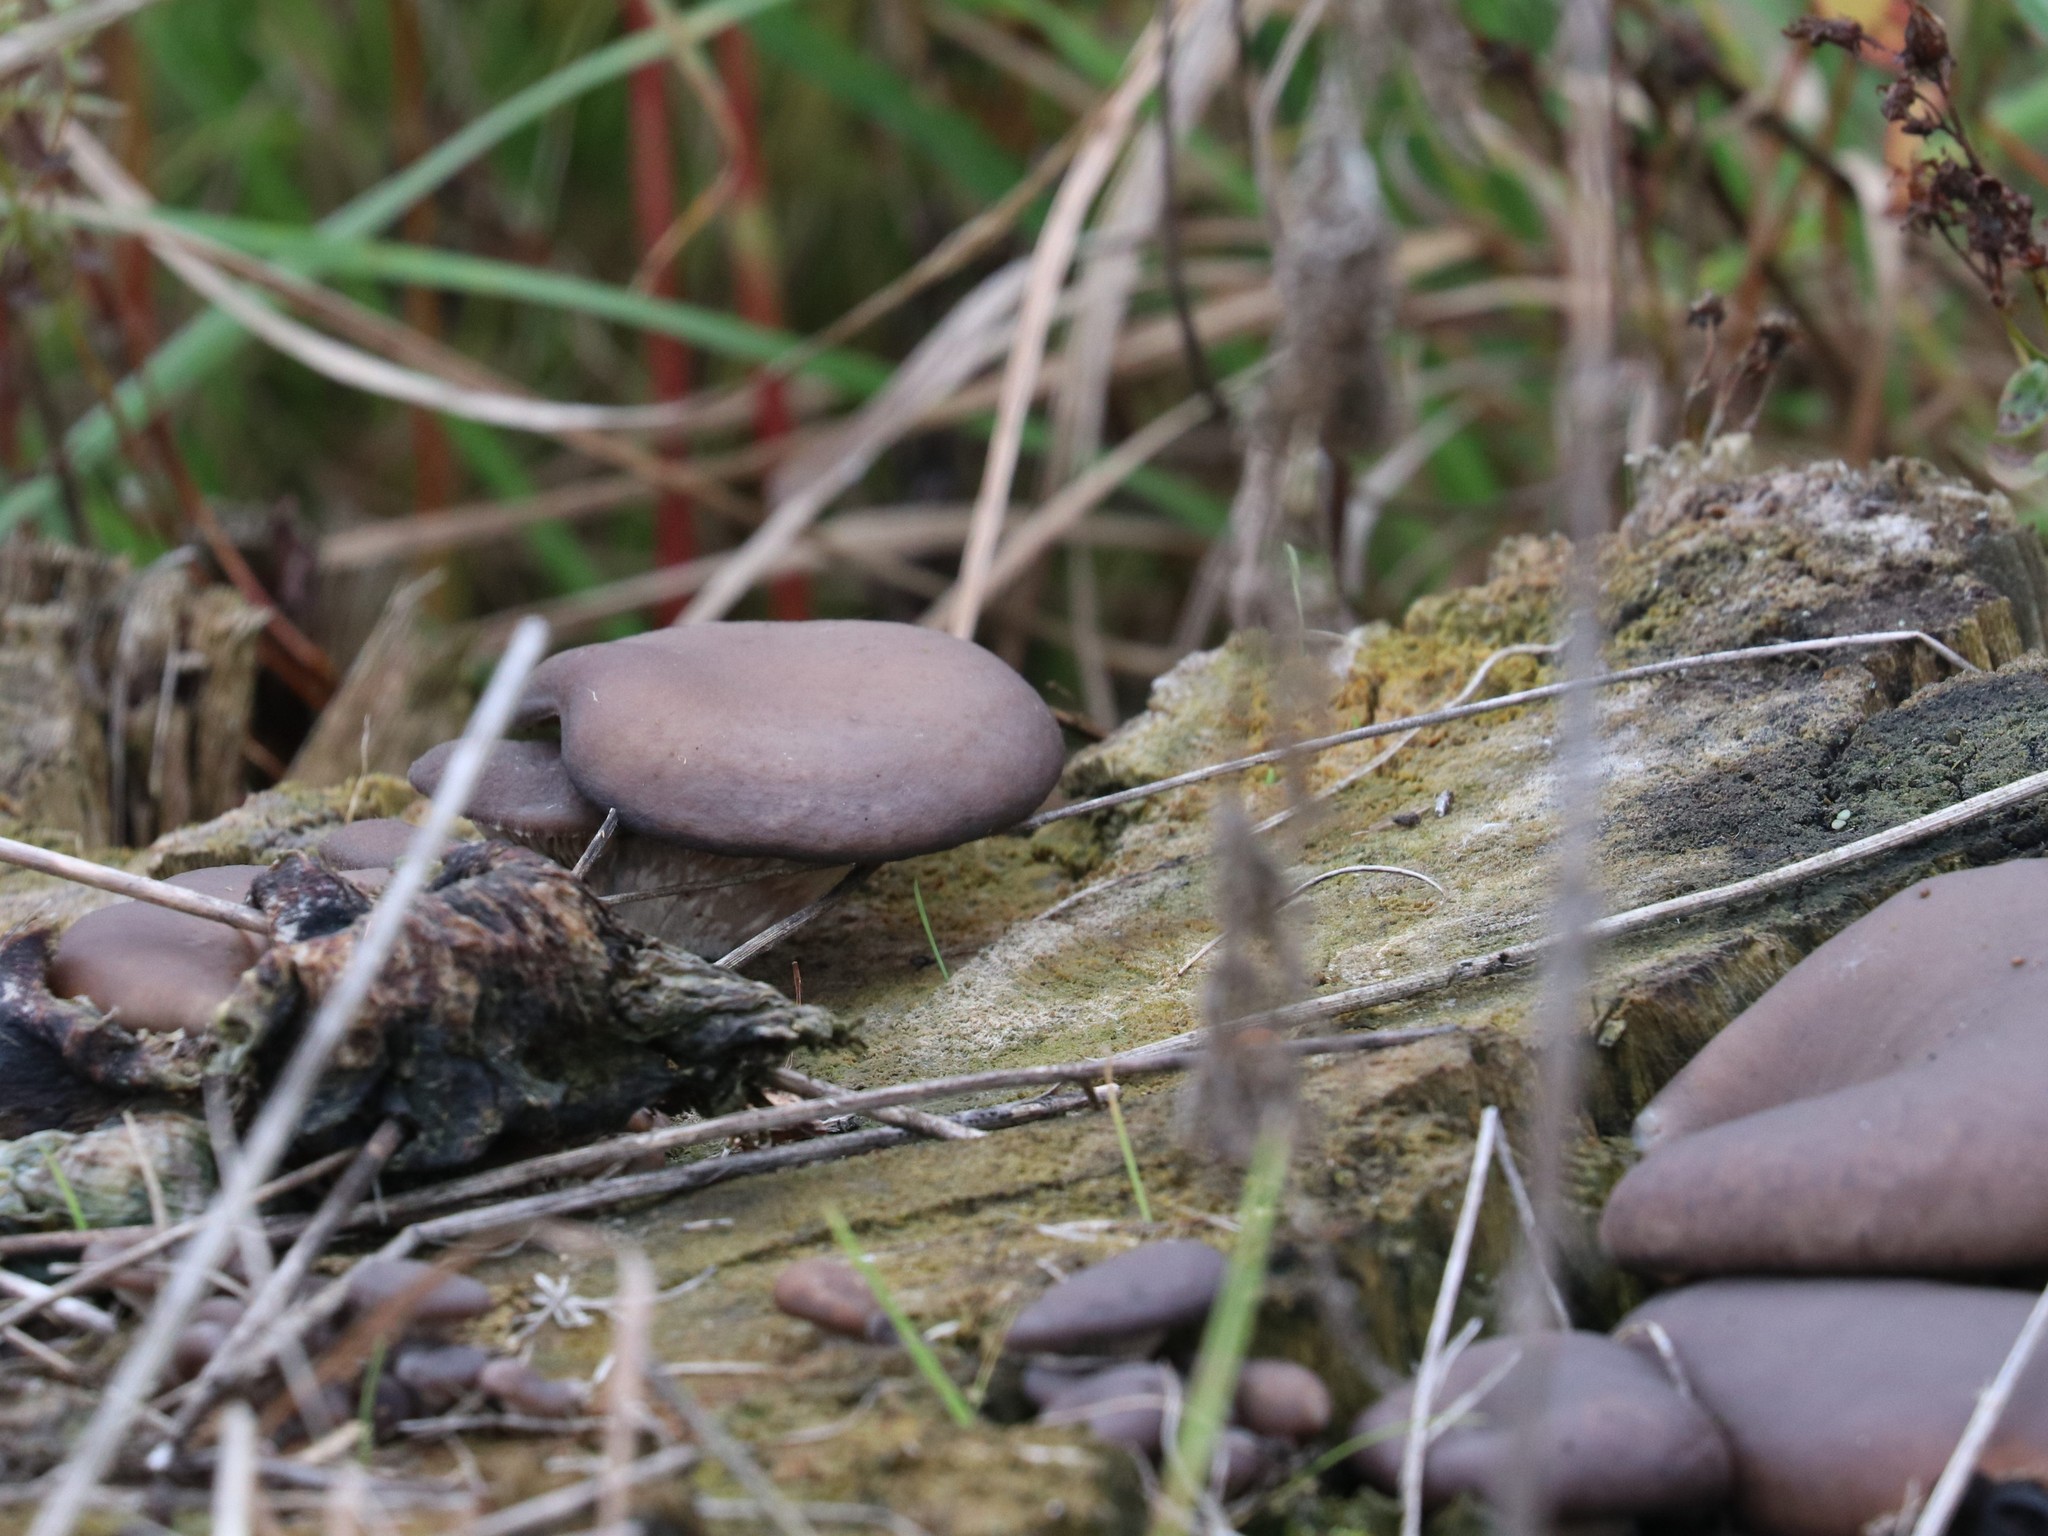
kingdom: Fungi
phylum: Basidiomycota
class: Agaricomycetes
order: Agaricales
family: Pleurotaceae
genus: Pleurotus
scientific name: Pleurotus ostreatus
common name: Oyster mushroom
